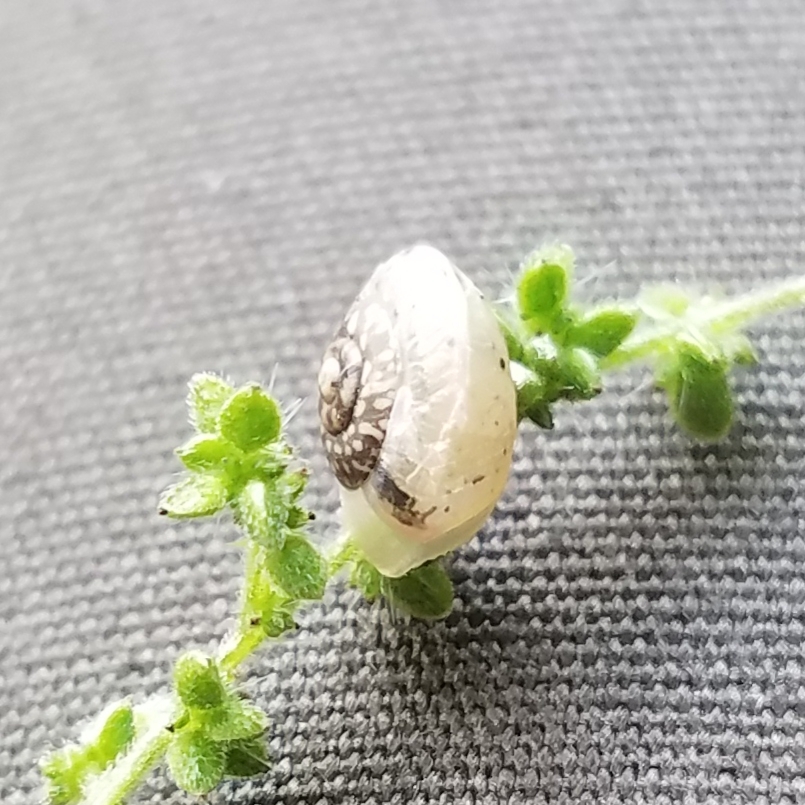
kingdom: Animalia
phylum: Mollusca
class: Gastropoda
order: Stylommatophora
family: Hygromiidae
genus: Hygromia
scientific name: Hygromia cinctella
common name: Girdled snail
